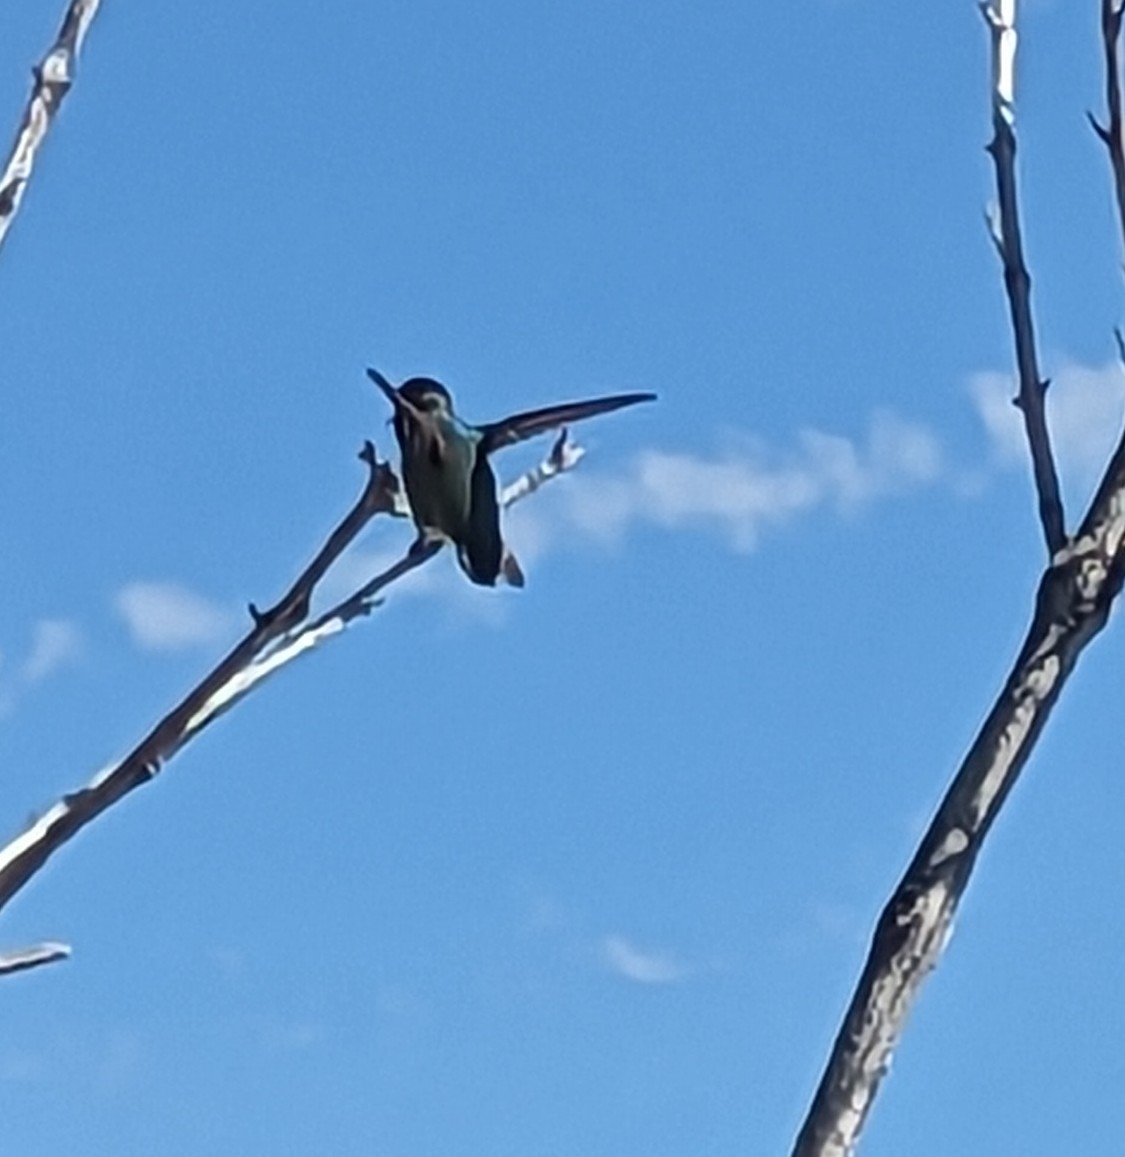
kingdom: Animalia
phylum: Chordata
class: Aves
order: Apodiformes
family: Trochilidae
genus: Calypte
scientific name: Calypte costae
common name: Costa's hummingbird
